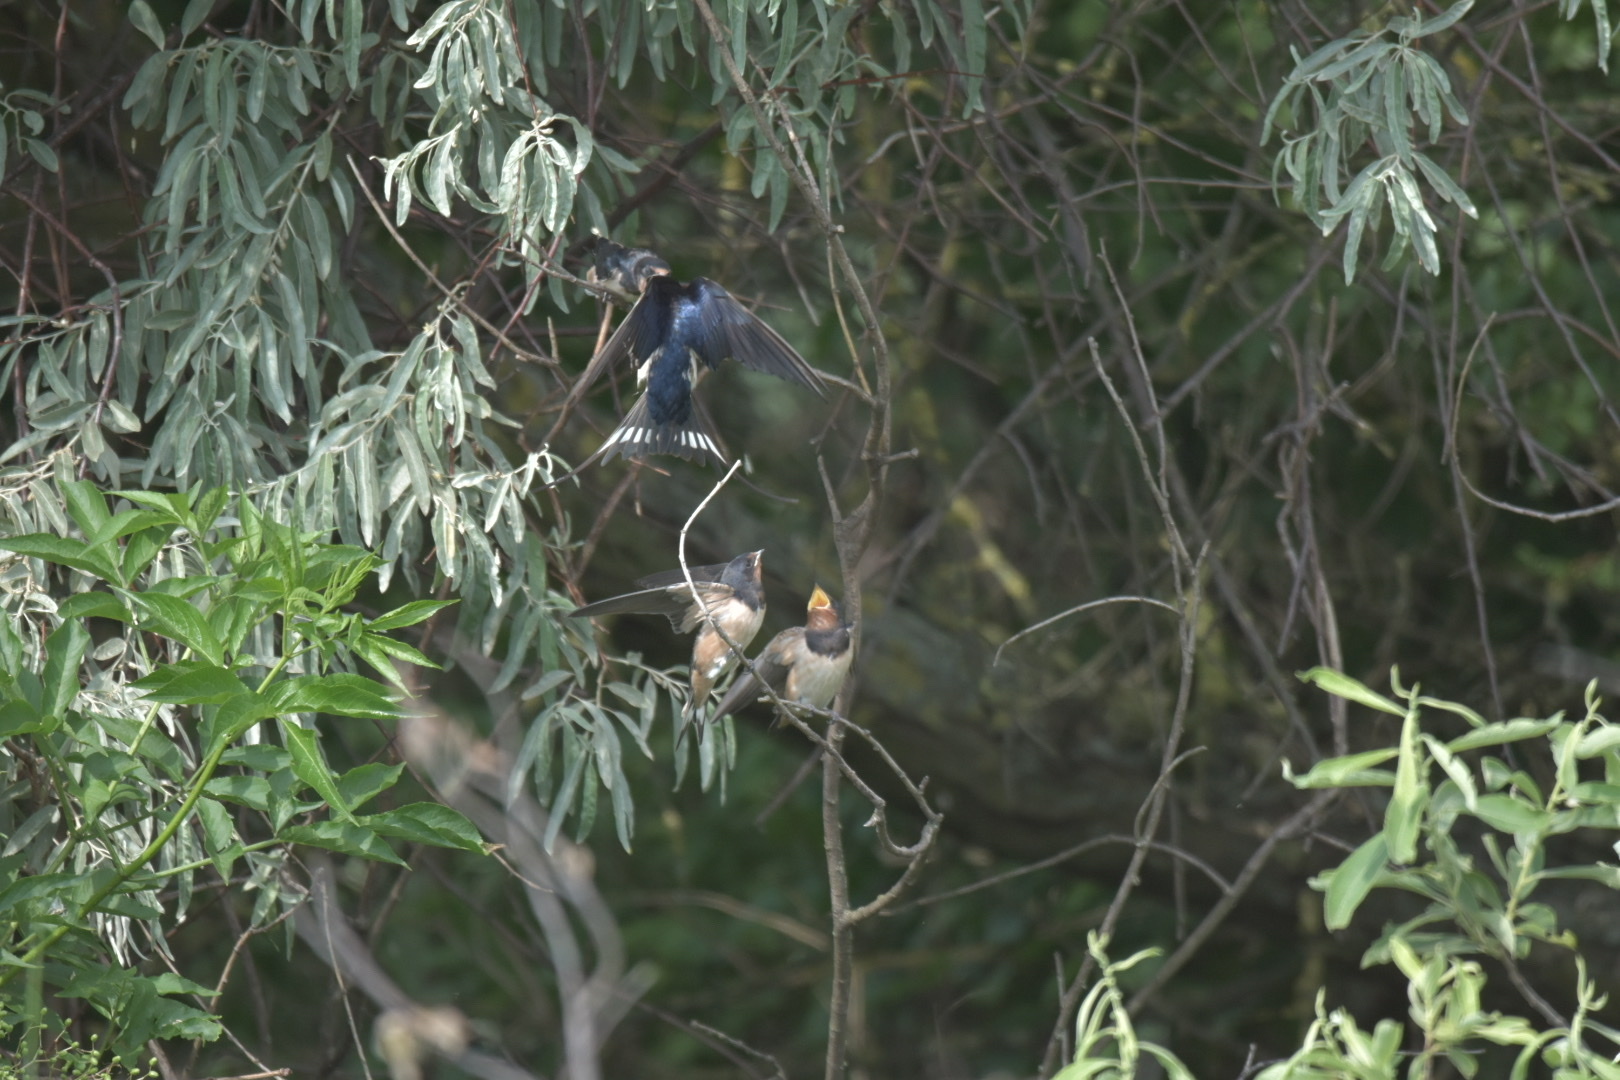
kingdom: Animalia
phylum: Chordata
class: Aves
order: Passeriformes
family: Hirundinidae
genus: Hirundo
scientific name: Hirundo rustica
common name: Barn swallow
